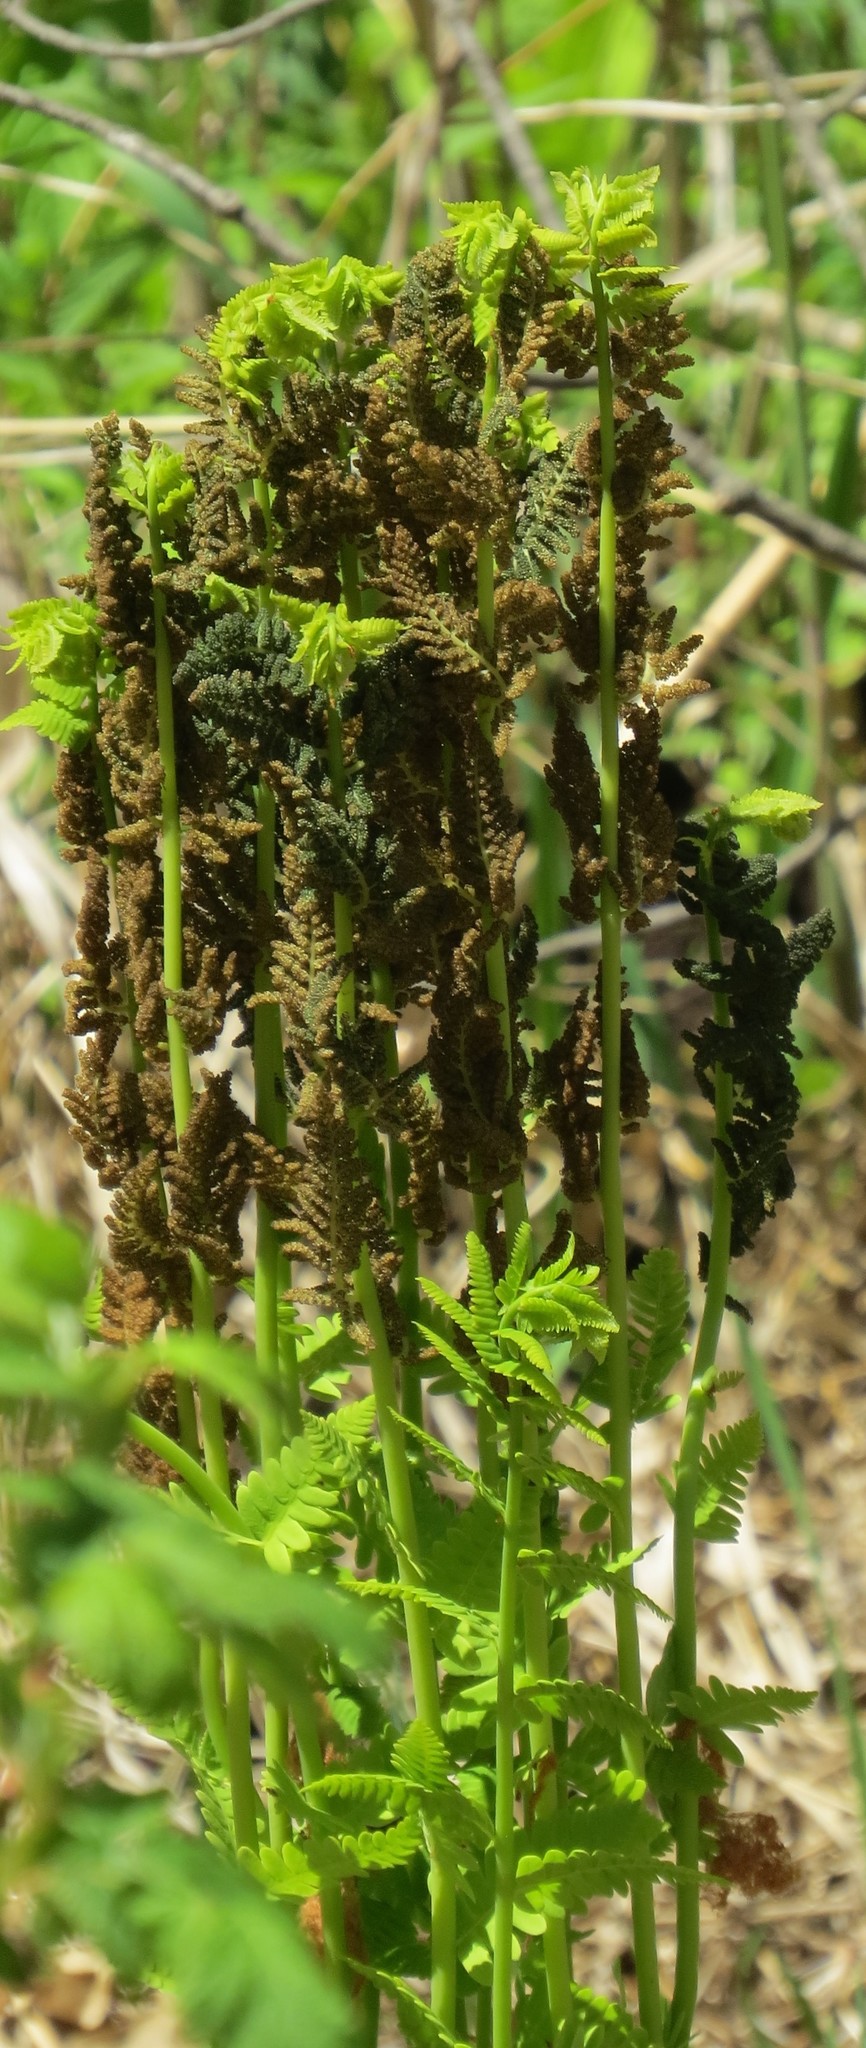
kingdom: Plantae
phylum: Tracheophyta
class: Polypodiopsida
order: Osmundales
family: Osmundaceae
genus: Claytosmunda
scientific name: Claytosmunda claytoniana
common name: Clayton's fern
